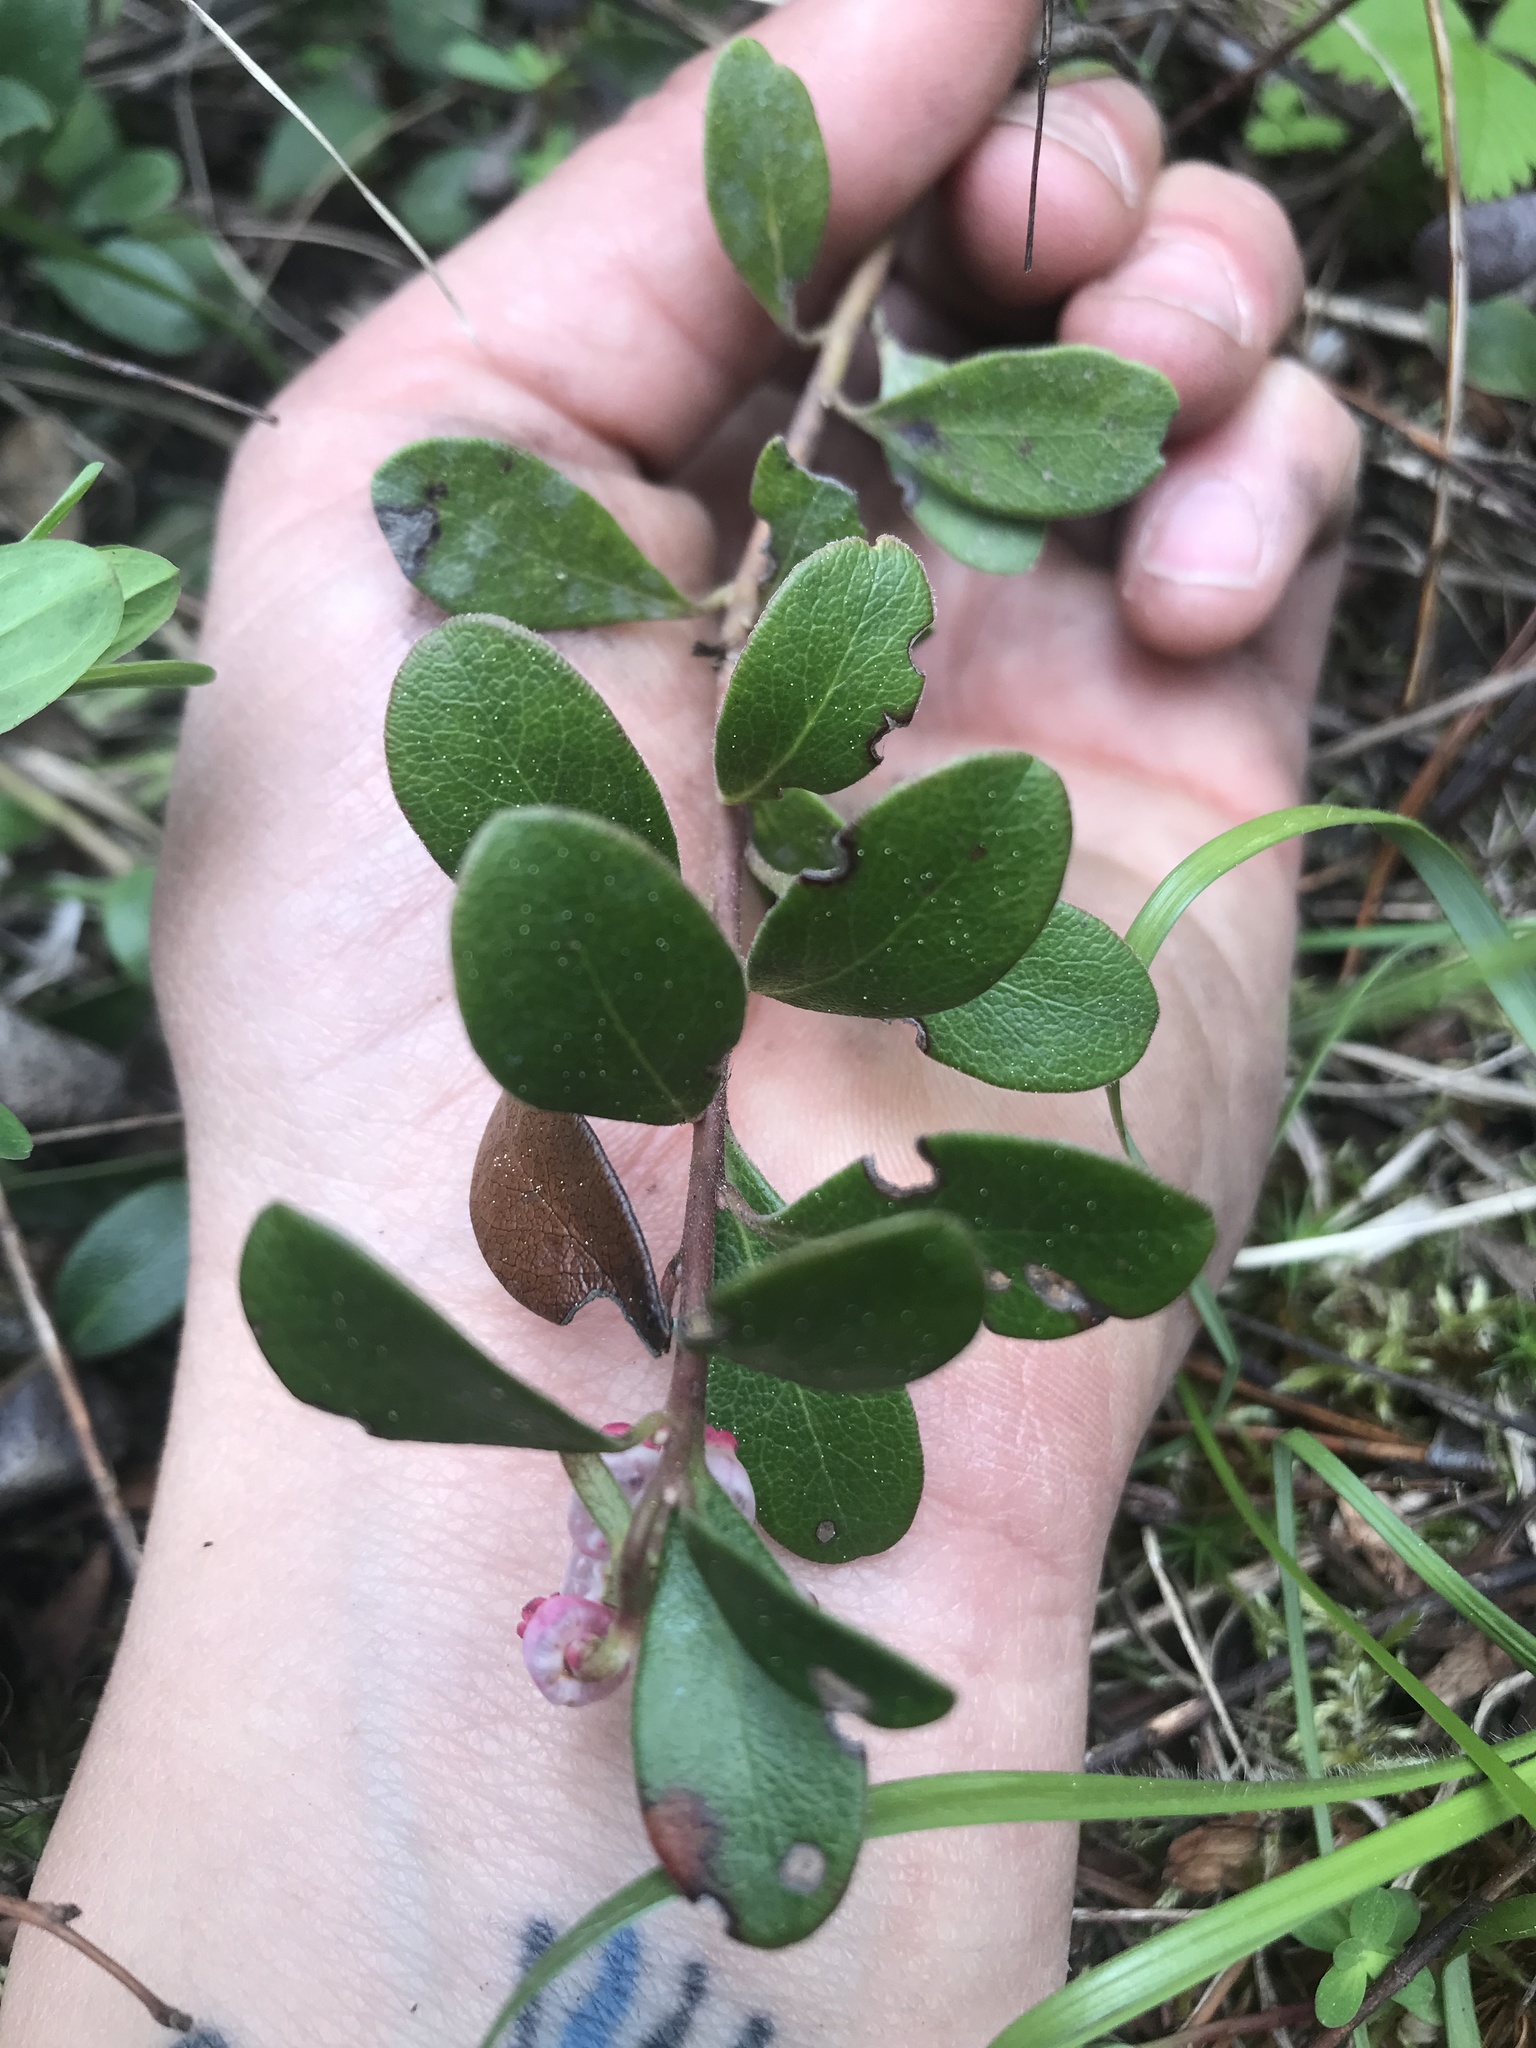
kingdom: Plantae
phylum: Tracheophyta
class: Magnoliopsida
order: Ericales
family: Ericaceae
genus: Arctostaphylos
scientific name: Arctostaphylos uva-ursi
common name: Bearberry
